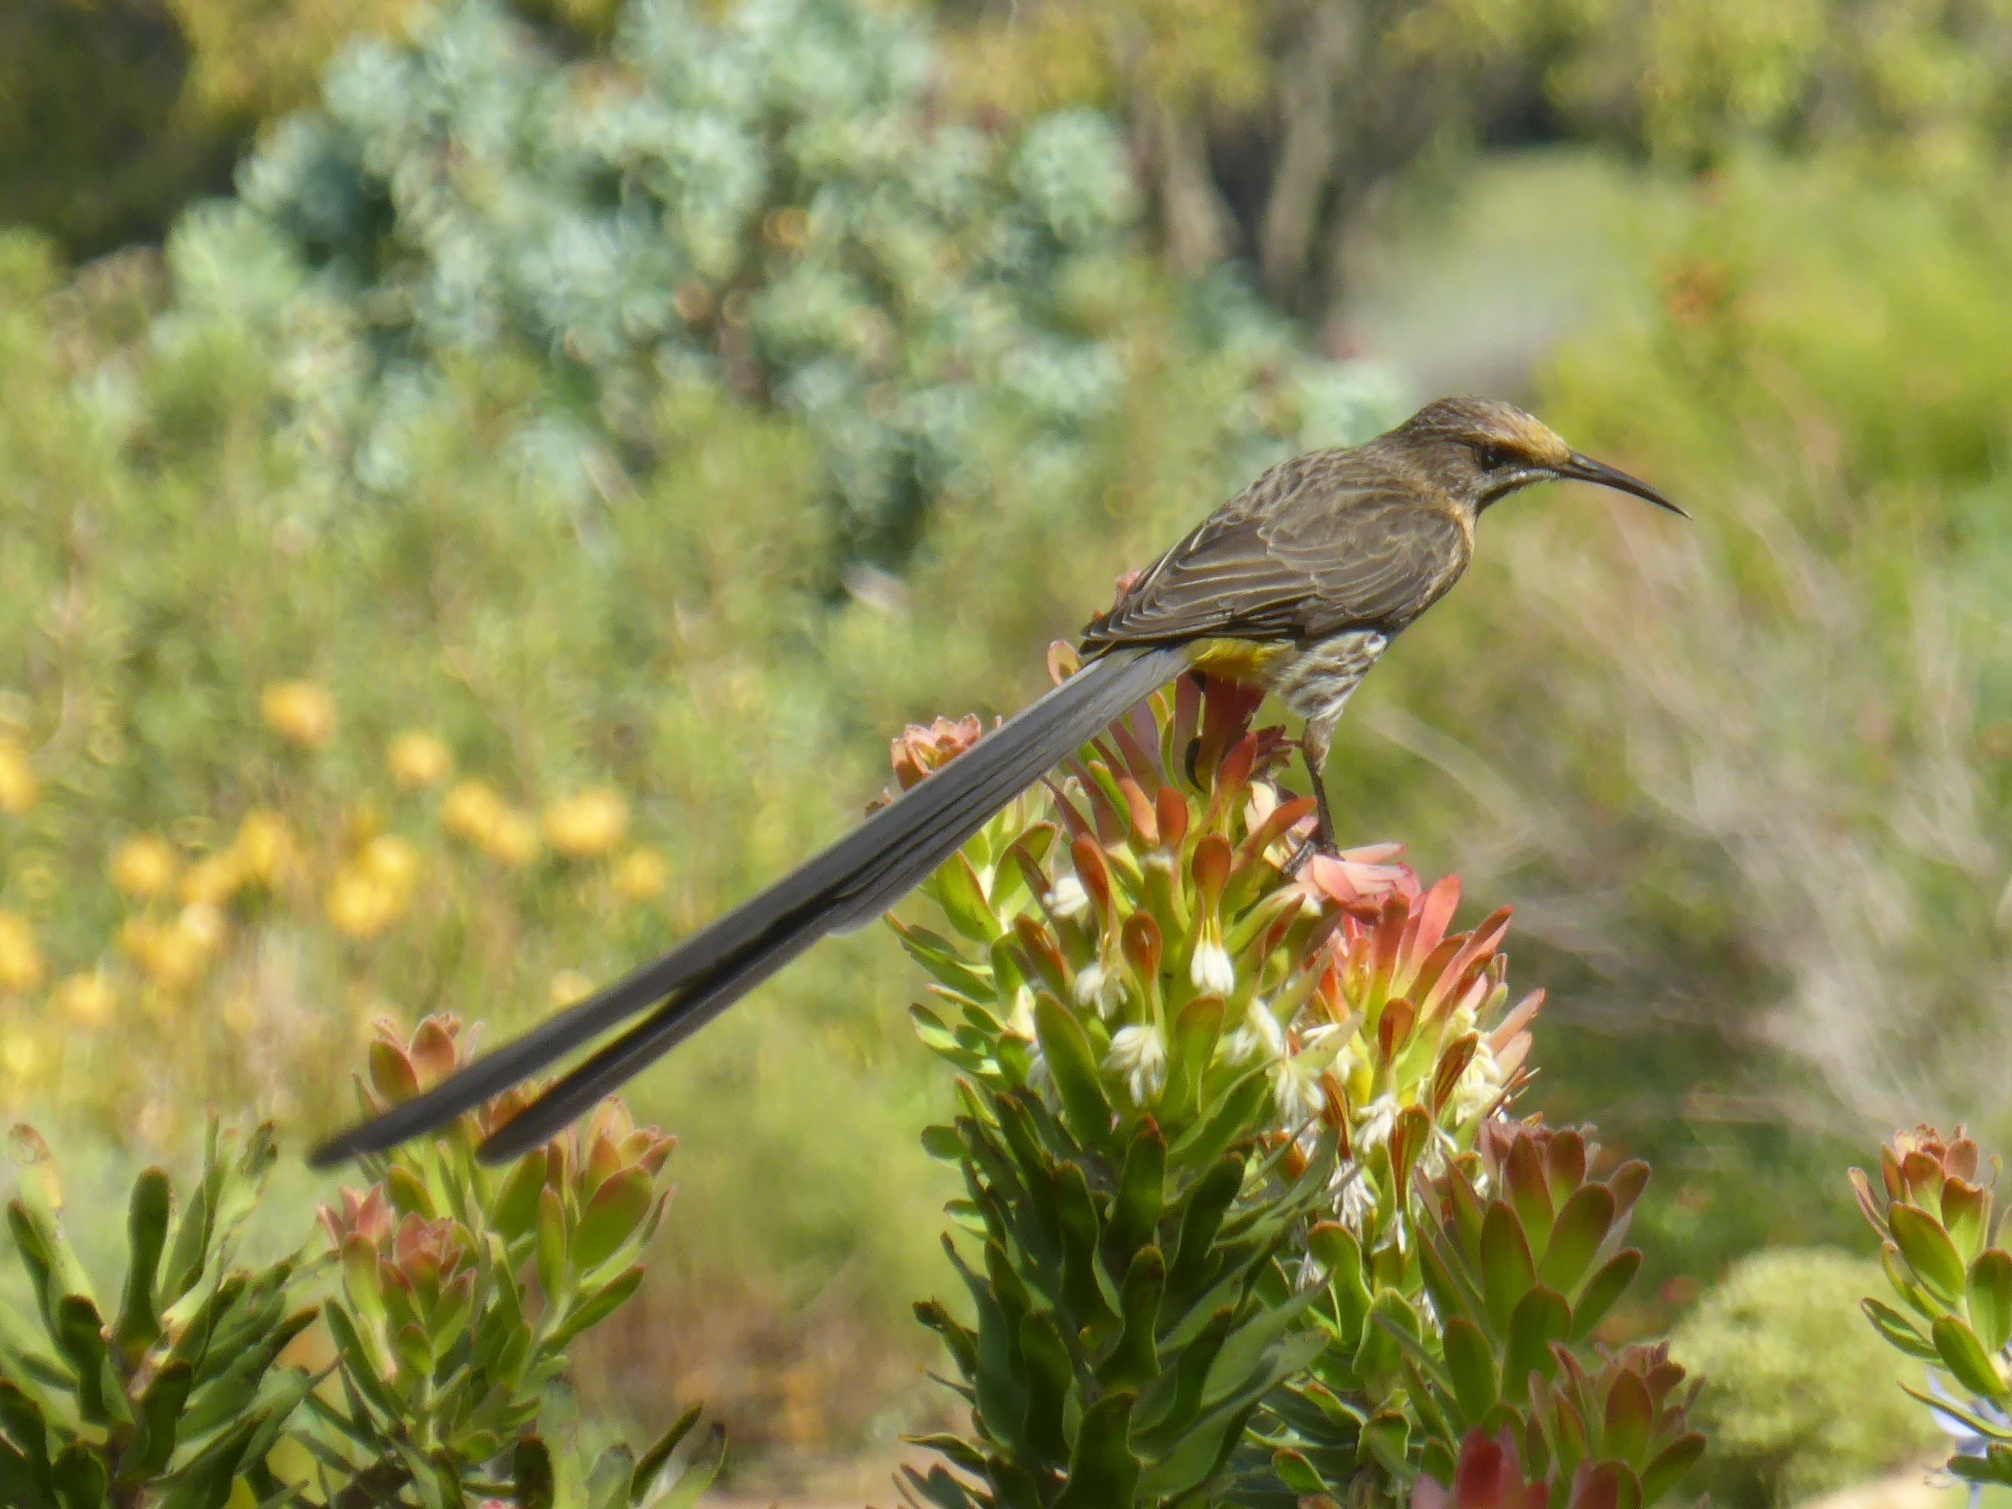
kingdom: Animalia
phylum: Chordata
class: Aves
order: Passeriformes
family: Promeropidae
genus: Promerops
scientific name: Promerops cafer
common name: Cape sugarbird
